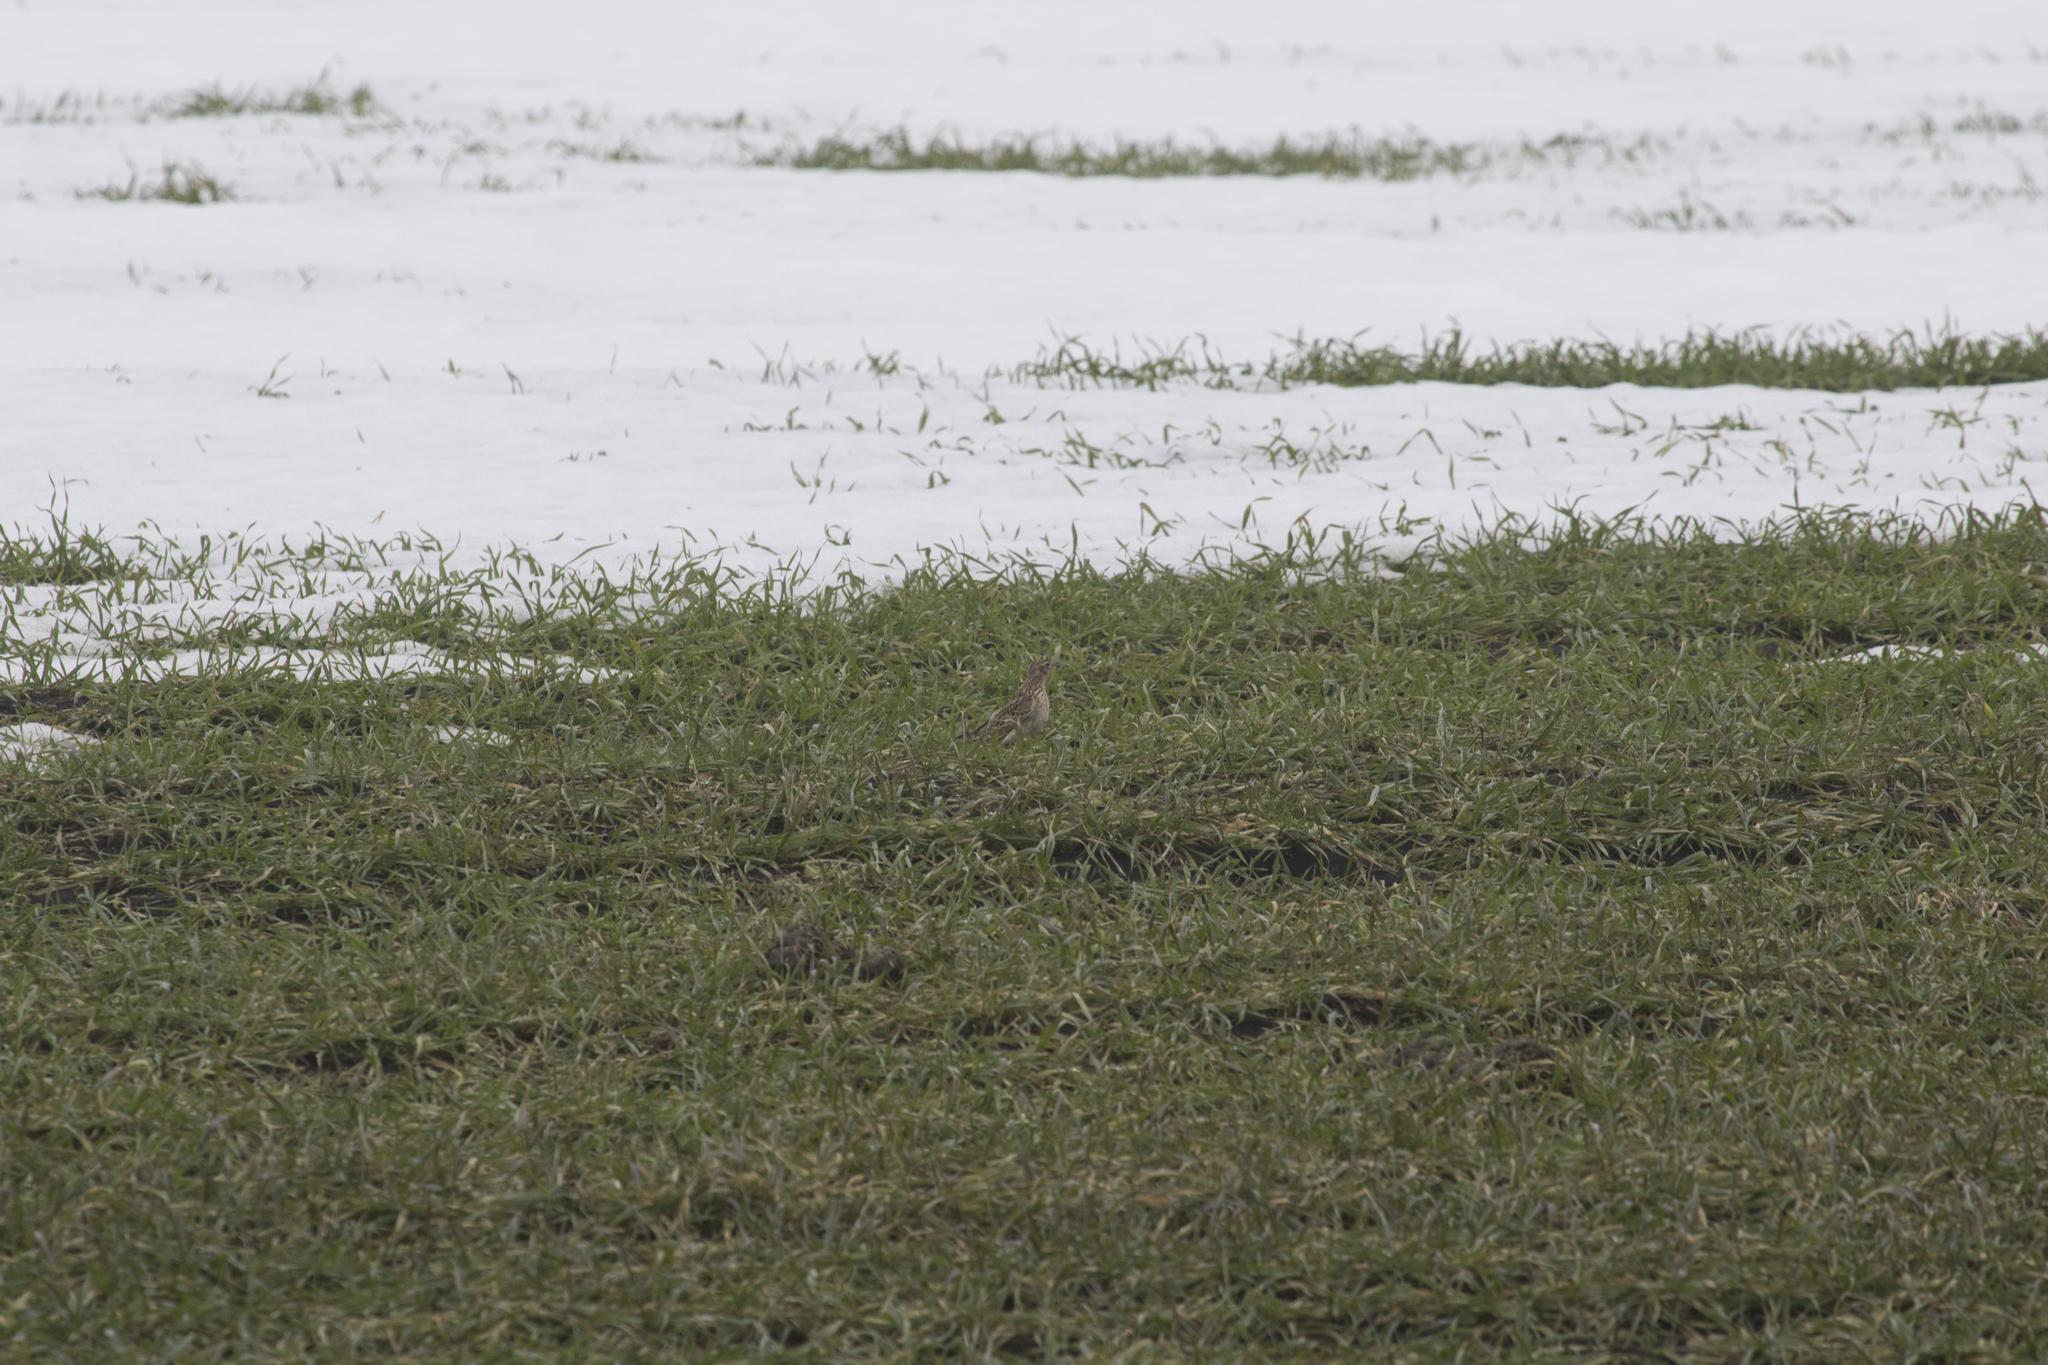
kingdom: Animalia
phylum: Chordata
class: Aves
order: Passeriformes
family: Alaudidae
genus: Alauda
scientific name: Alauda arvensis
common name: Eurasian skylark
